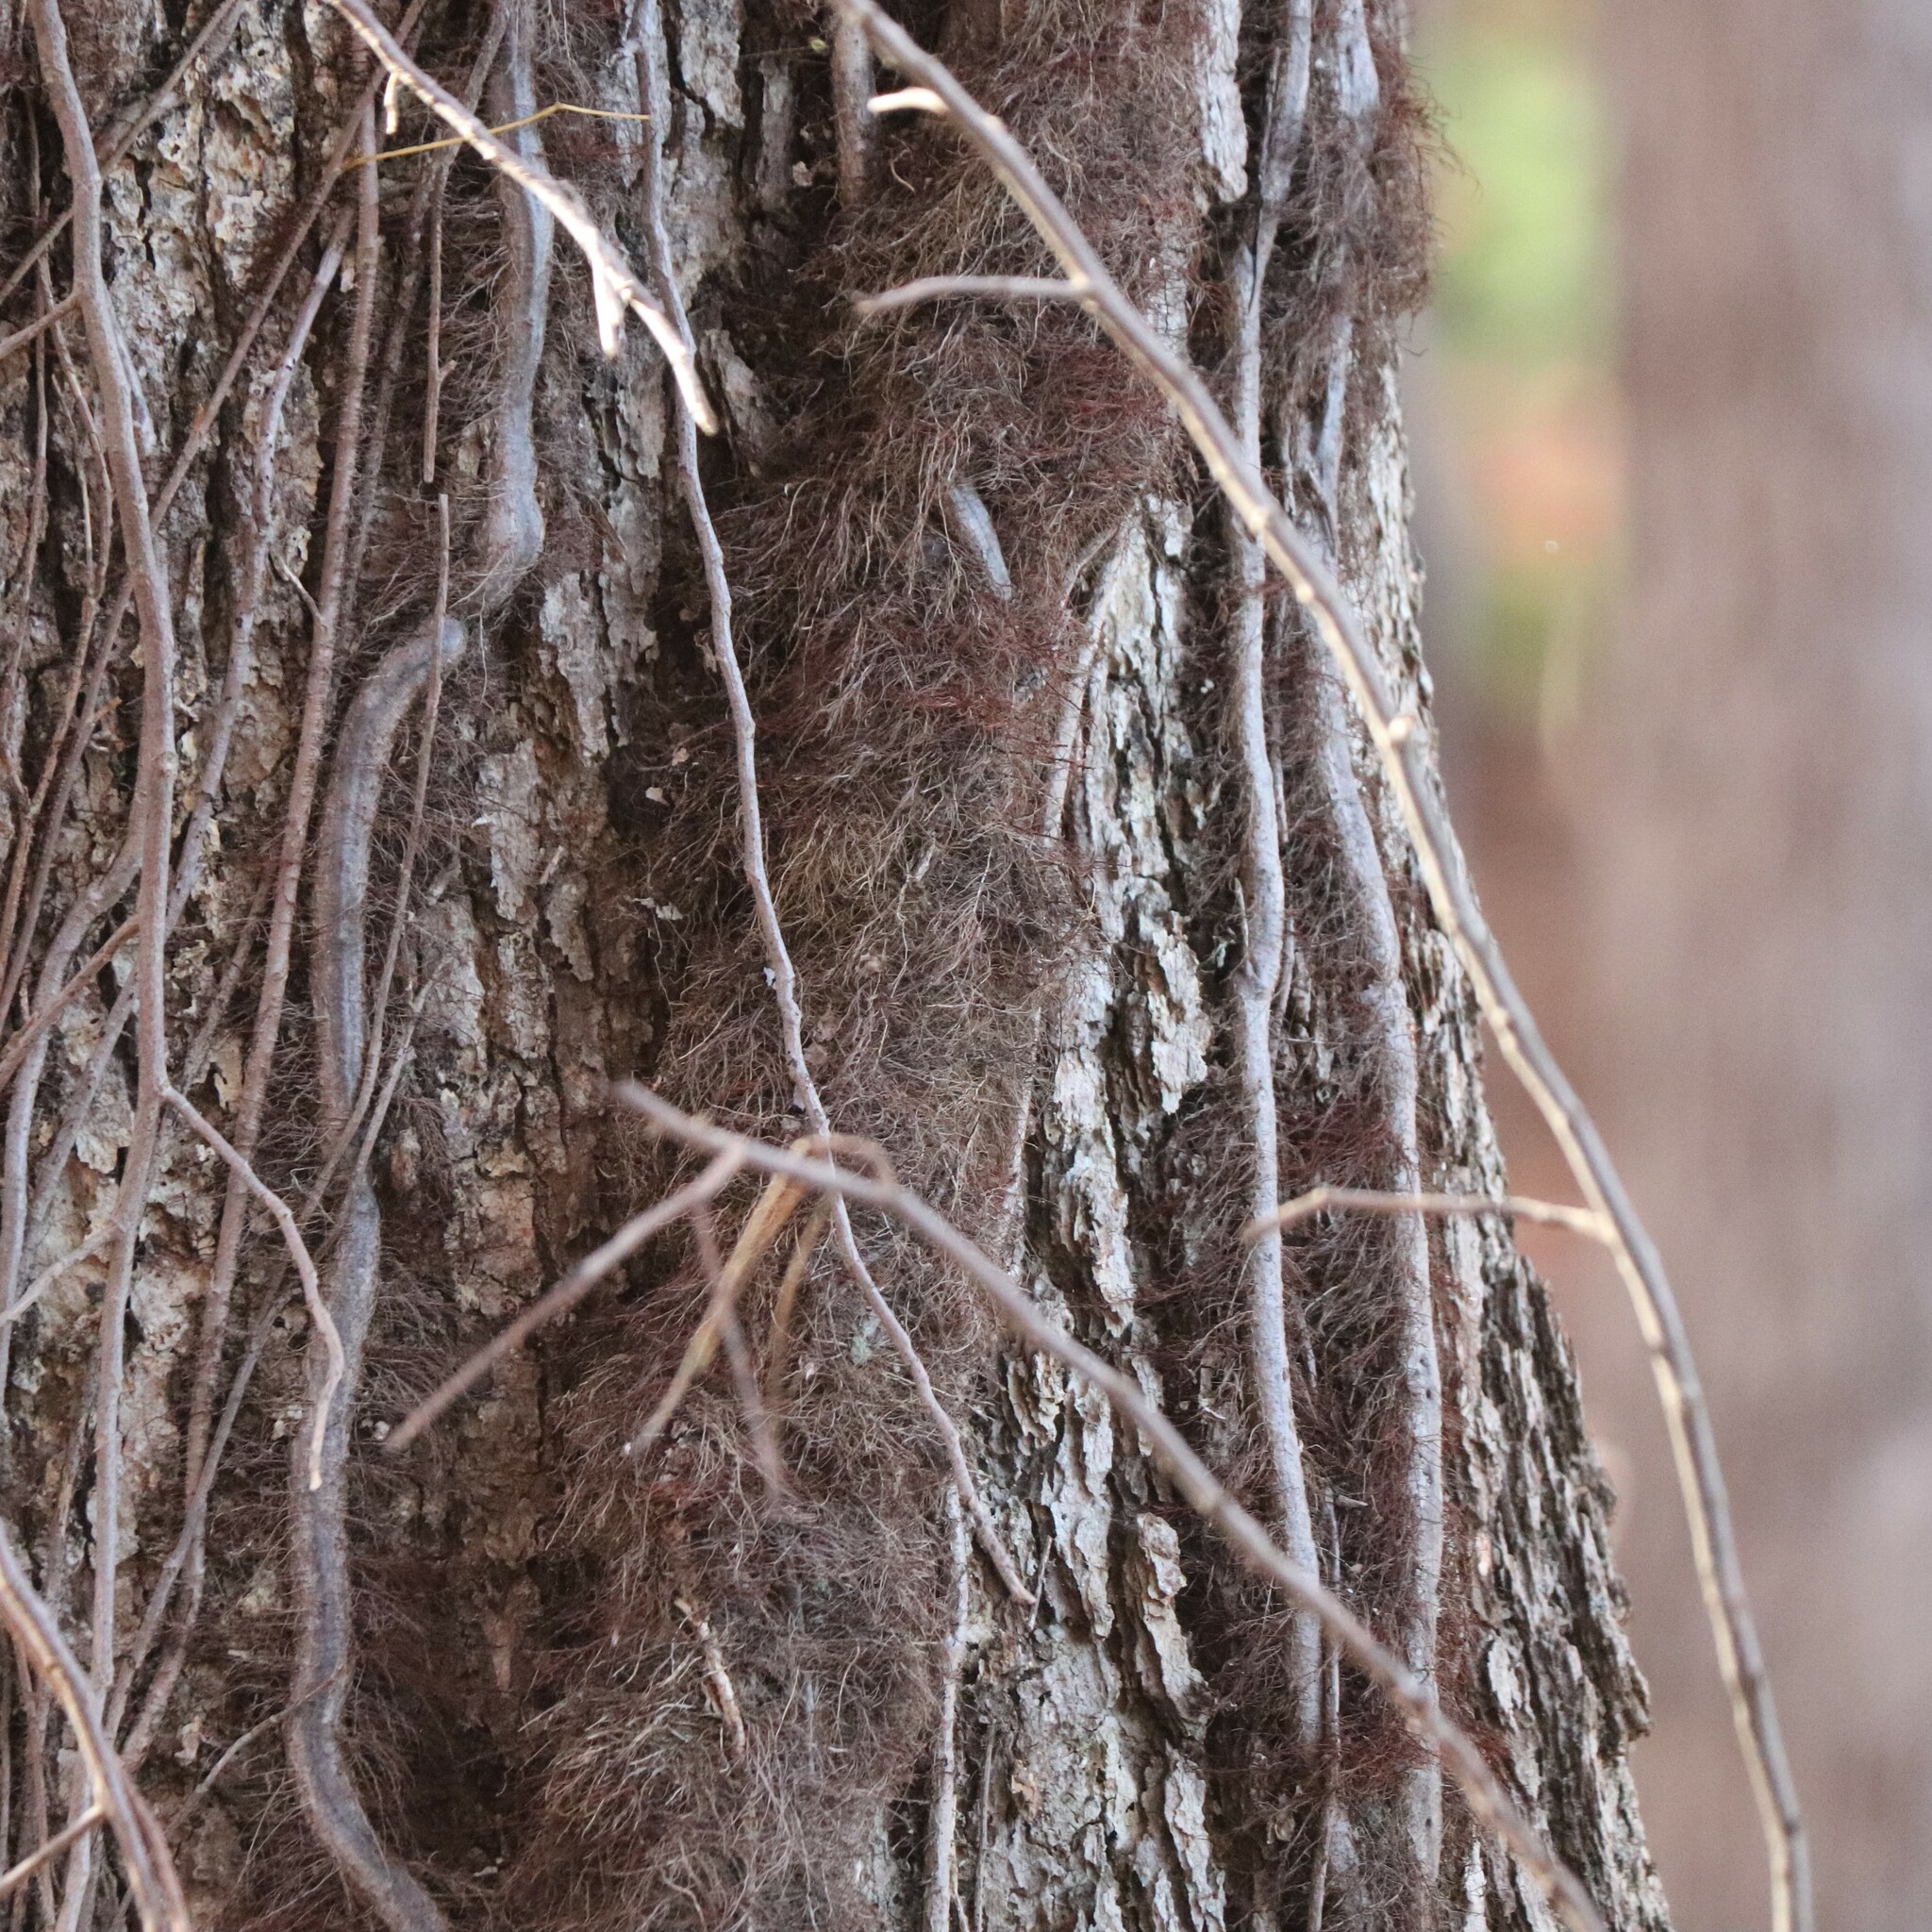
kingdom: Plantae
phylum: Tracheophyta
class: Magnoliopsida
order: Sapindales
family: Anacardiaceae
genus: Toxicodendron
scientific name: Toxicodendron radicans
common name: Poison ivy
